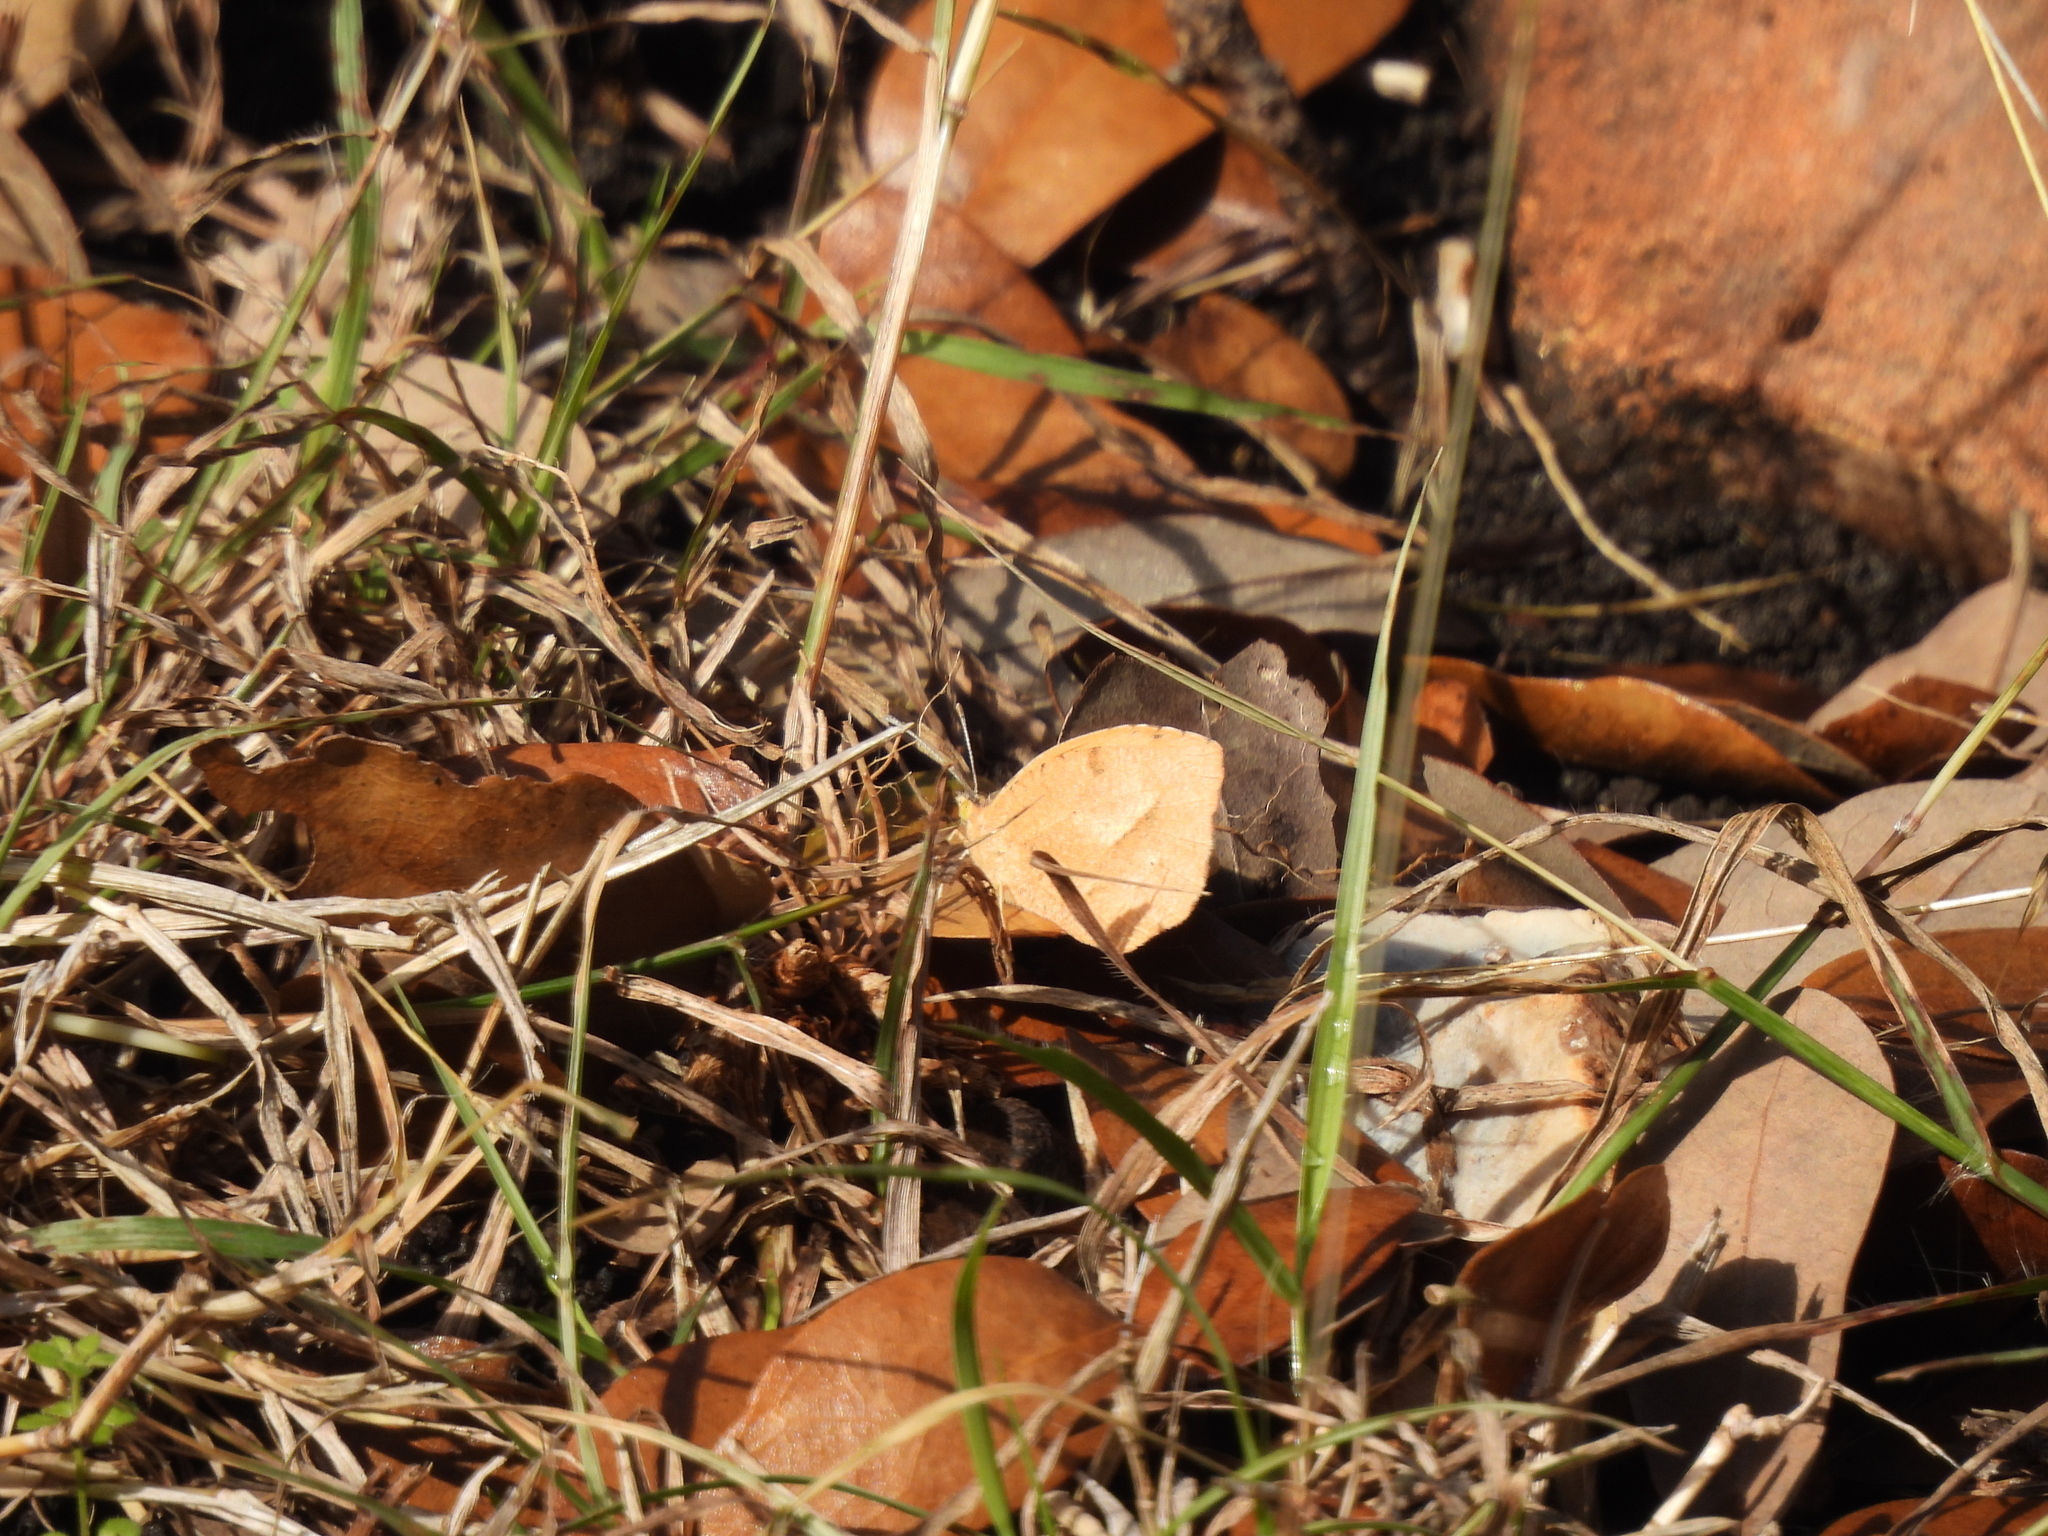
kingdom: Animalia
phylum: Arthropoda
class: Insecta
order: Lepidoptera
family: Pieridae
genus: Abaeis
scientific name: Abaeis nicippe
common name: Sleepy orange
